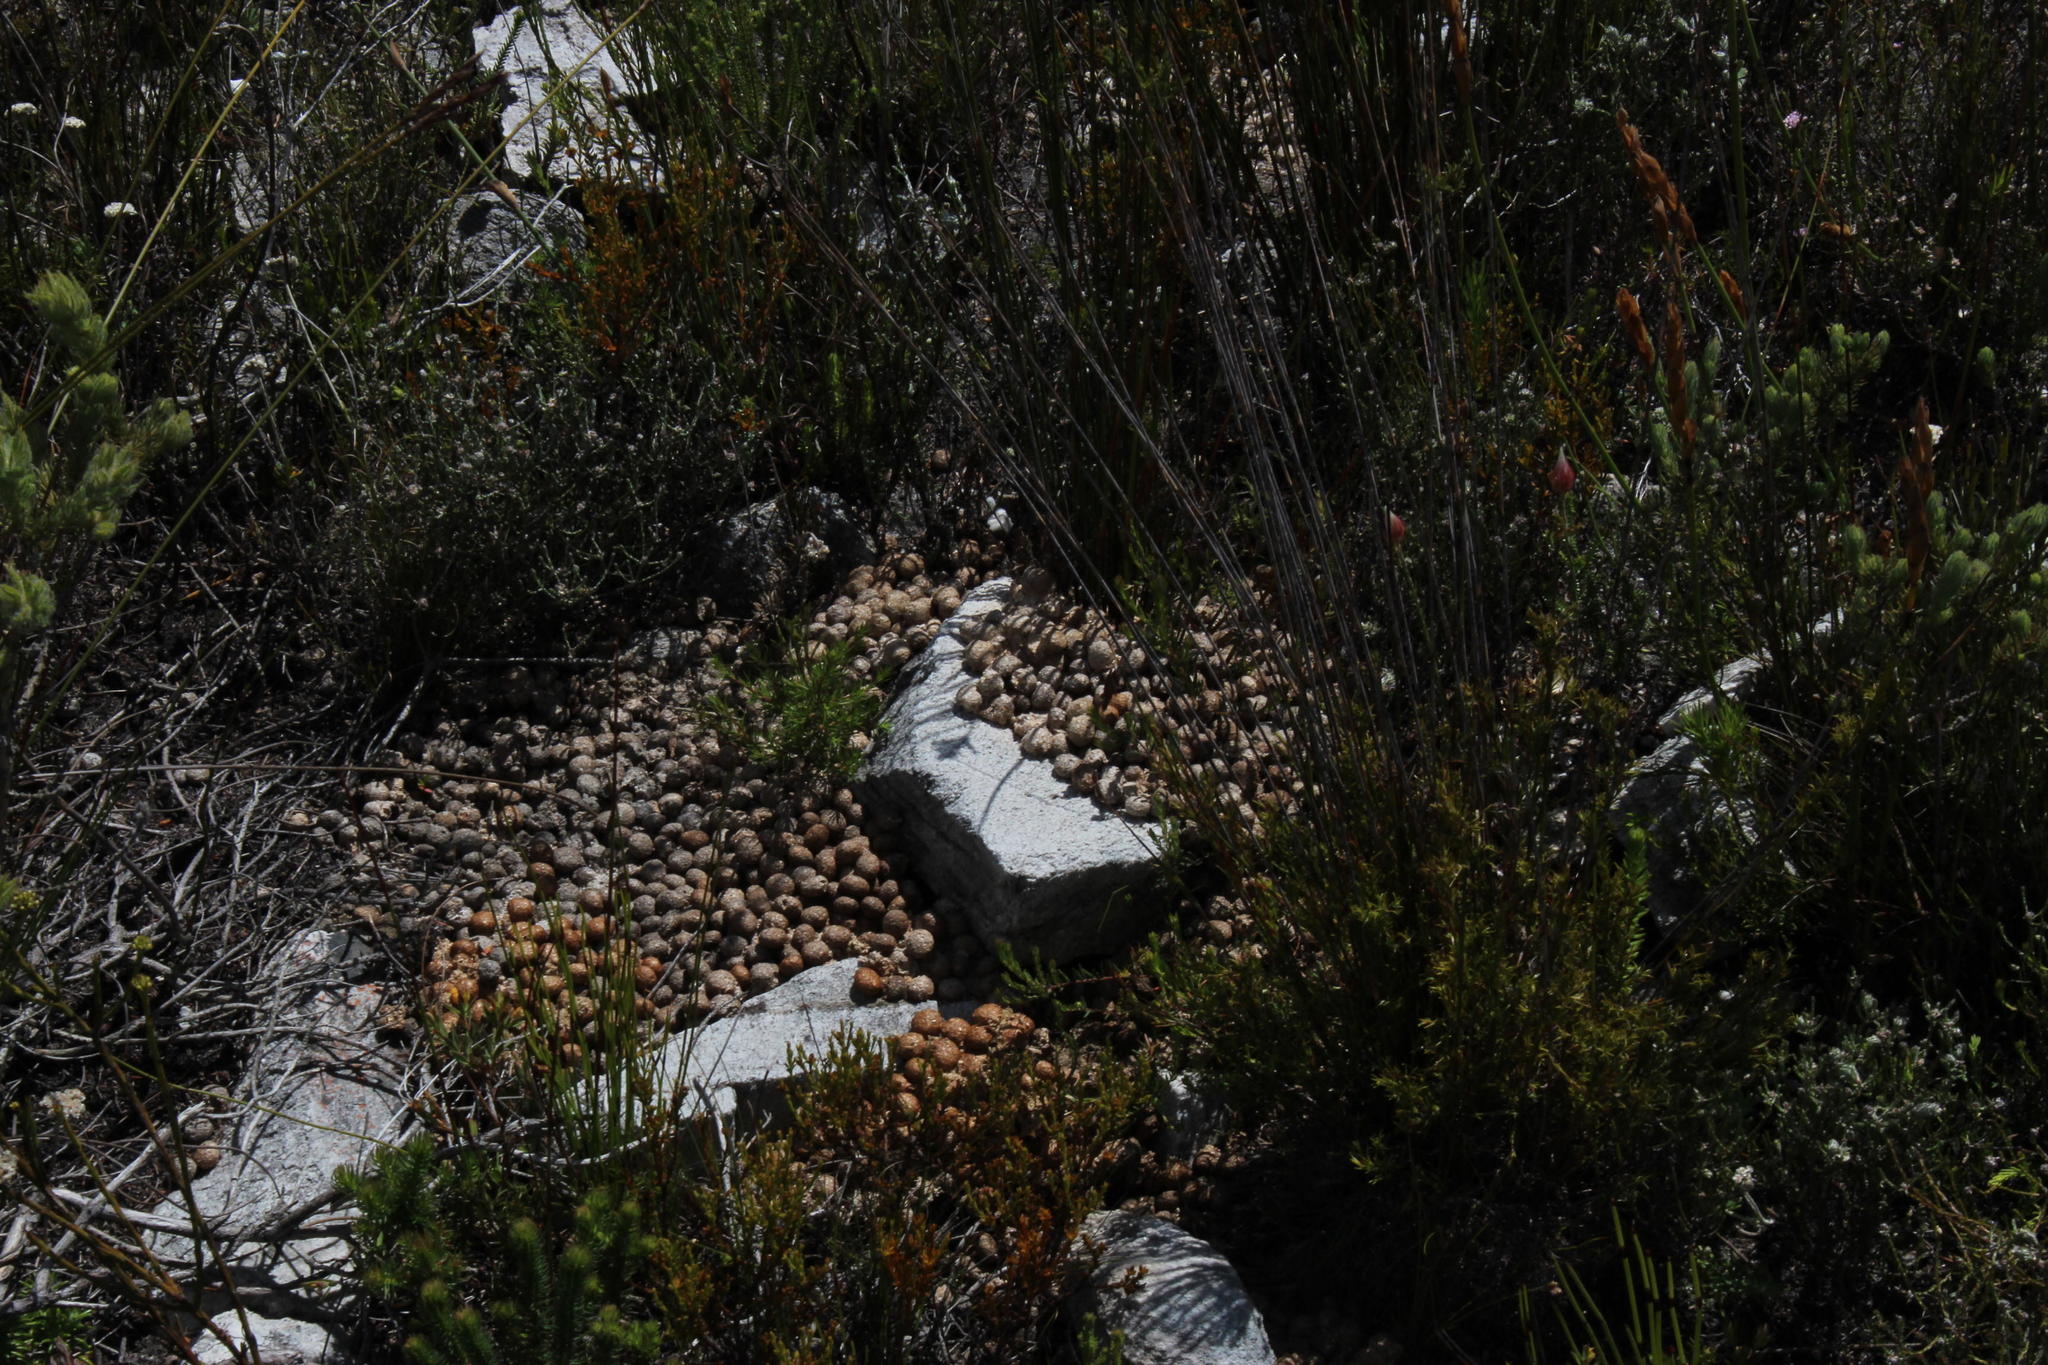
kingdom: Animalia
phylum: Chordata
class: Mammalia
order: Lagomorpha
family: Leporidae
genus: Pronolagus
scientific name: Pronolagus saundersiae
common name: Hewitt's red rock hare
